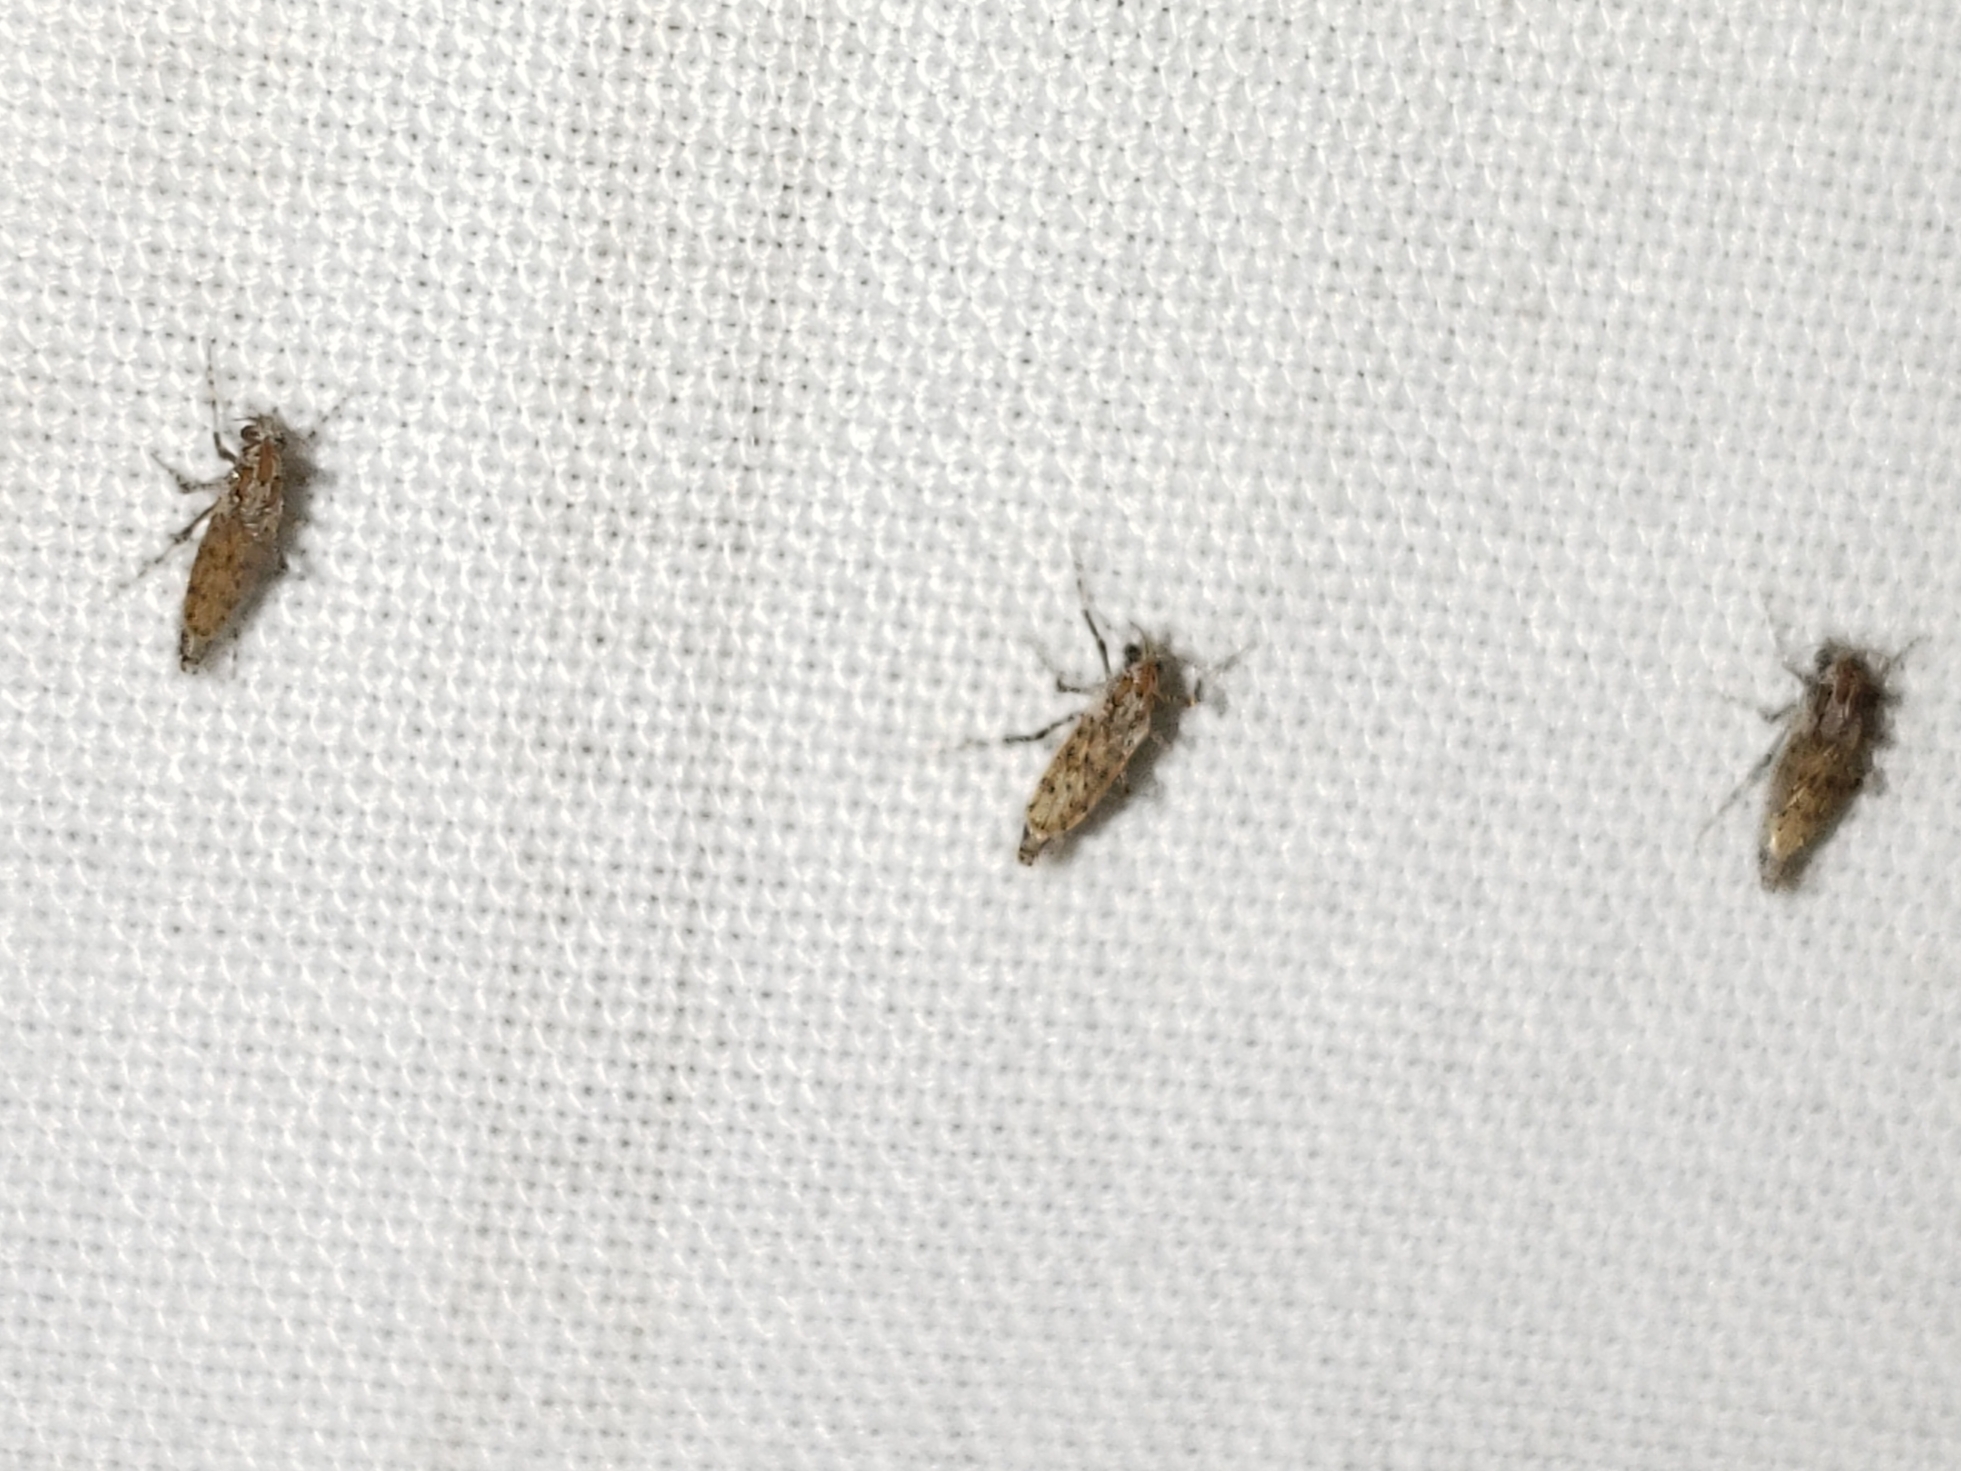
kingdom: Animalia
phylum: Arthropoda
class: Insecta
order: Diptera
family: Chaoboridae
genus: Chaoborus
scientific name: Chaoborus punctipennis
